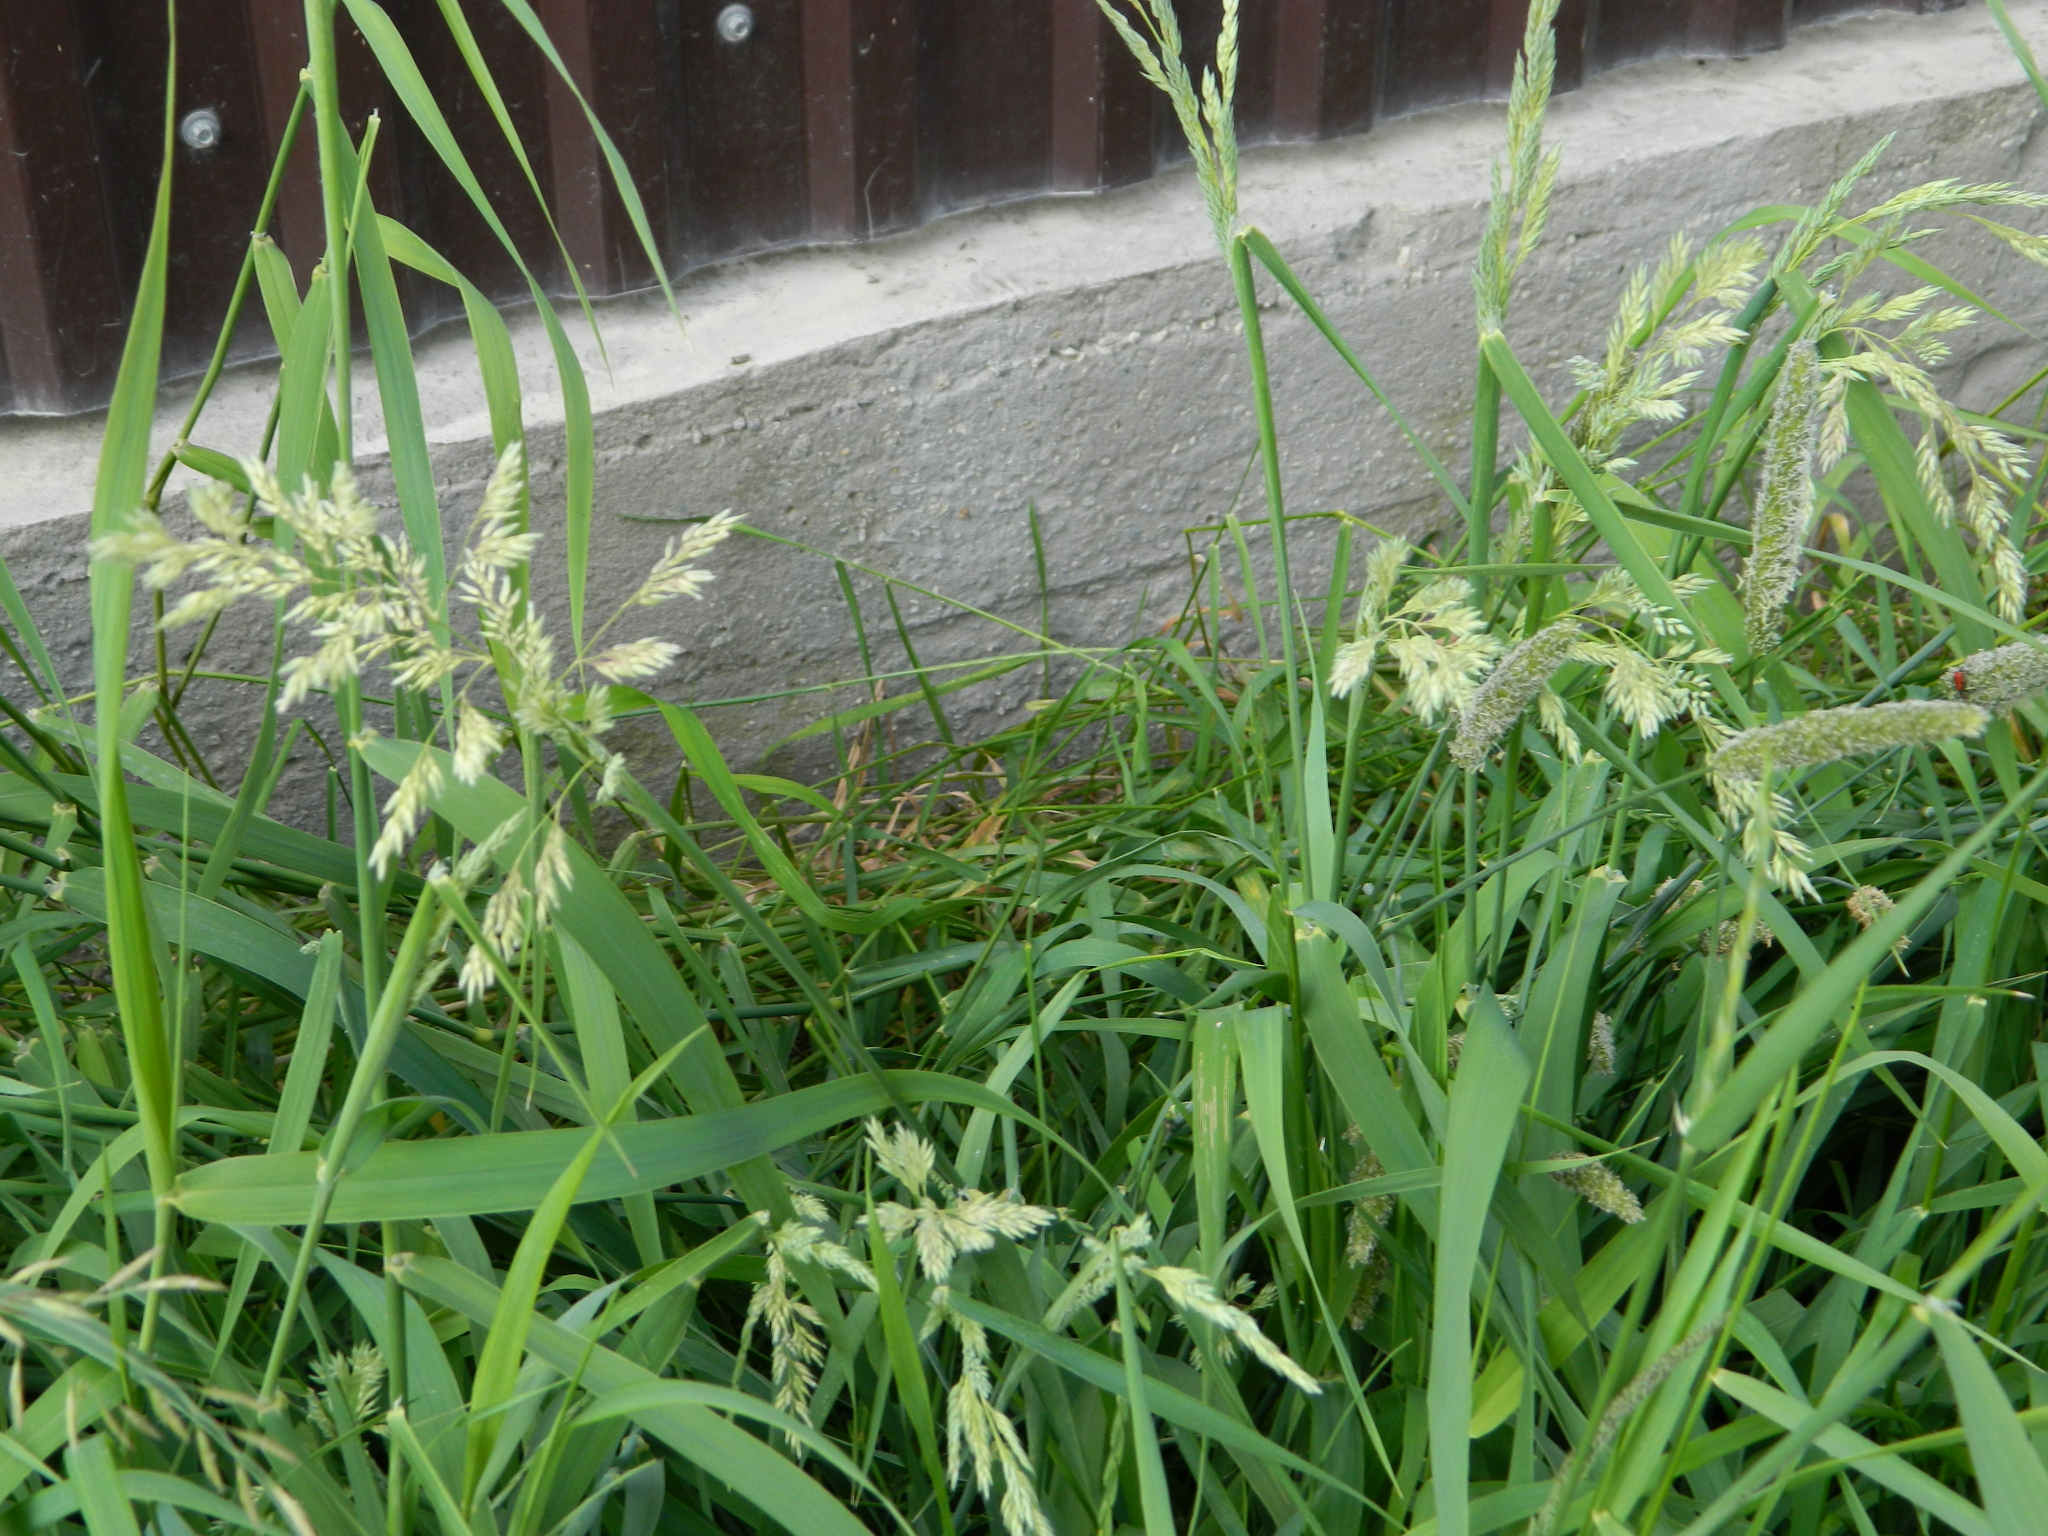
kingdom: Plantae
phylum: Tracheophyta
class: Liliopsida
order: Poales
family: Poaceae
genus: Phalaris
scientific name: Phalaris arundinacea
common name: Reed canary-grass
